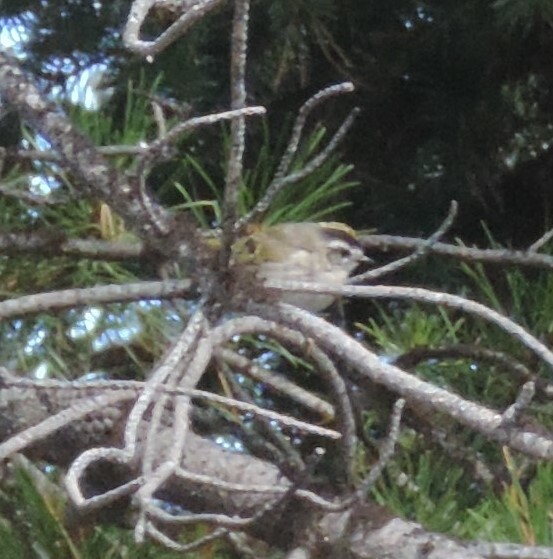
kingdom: Animalia
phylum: Chordata
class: Aves
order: Passeriformes
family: Regulidae
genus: Regulus
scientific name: Regulus satrapa
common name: Golden-crowned kinglet
